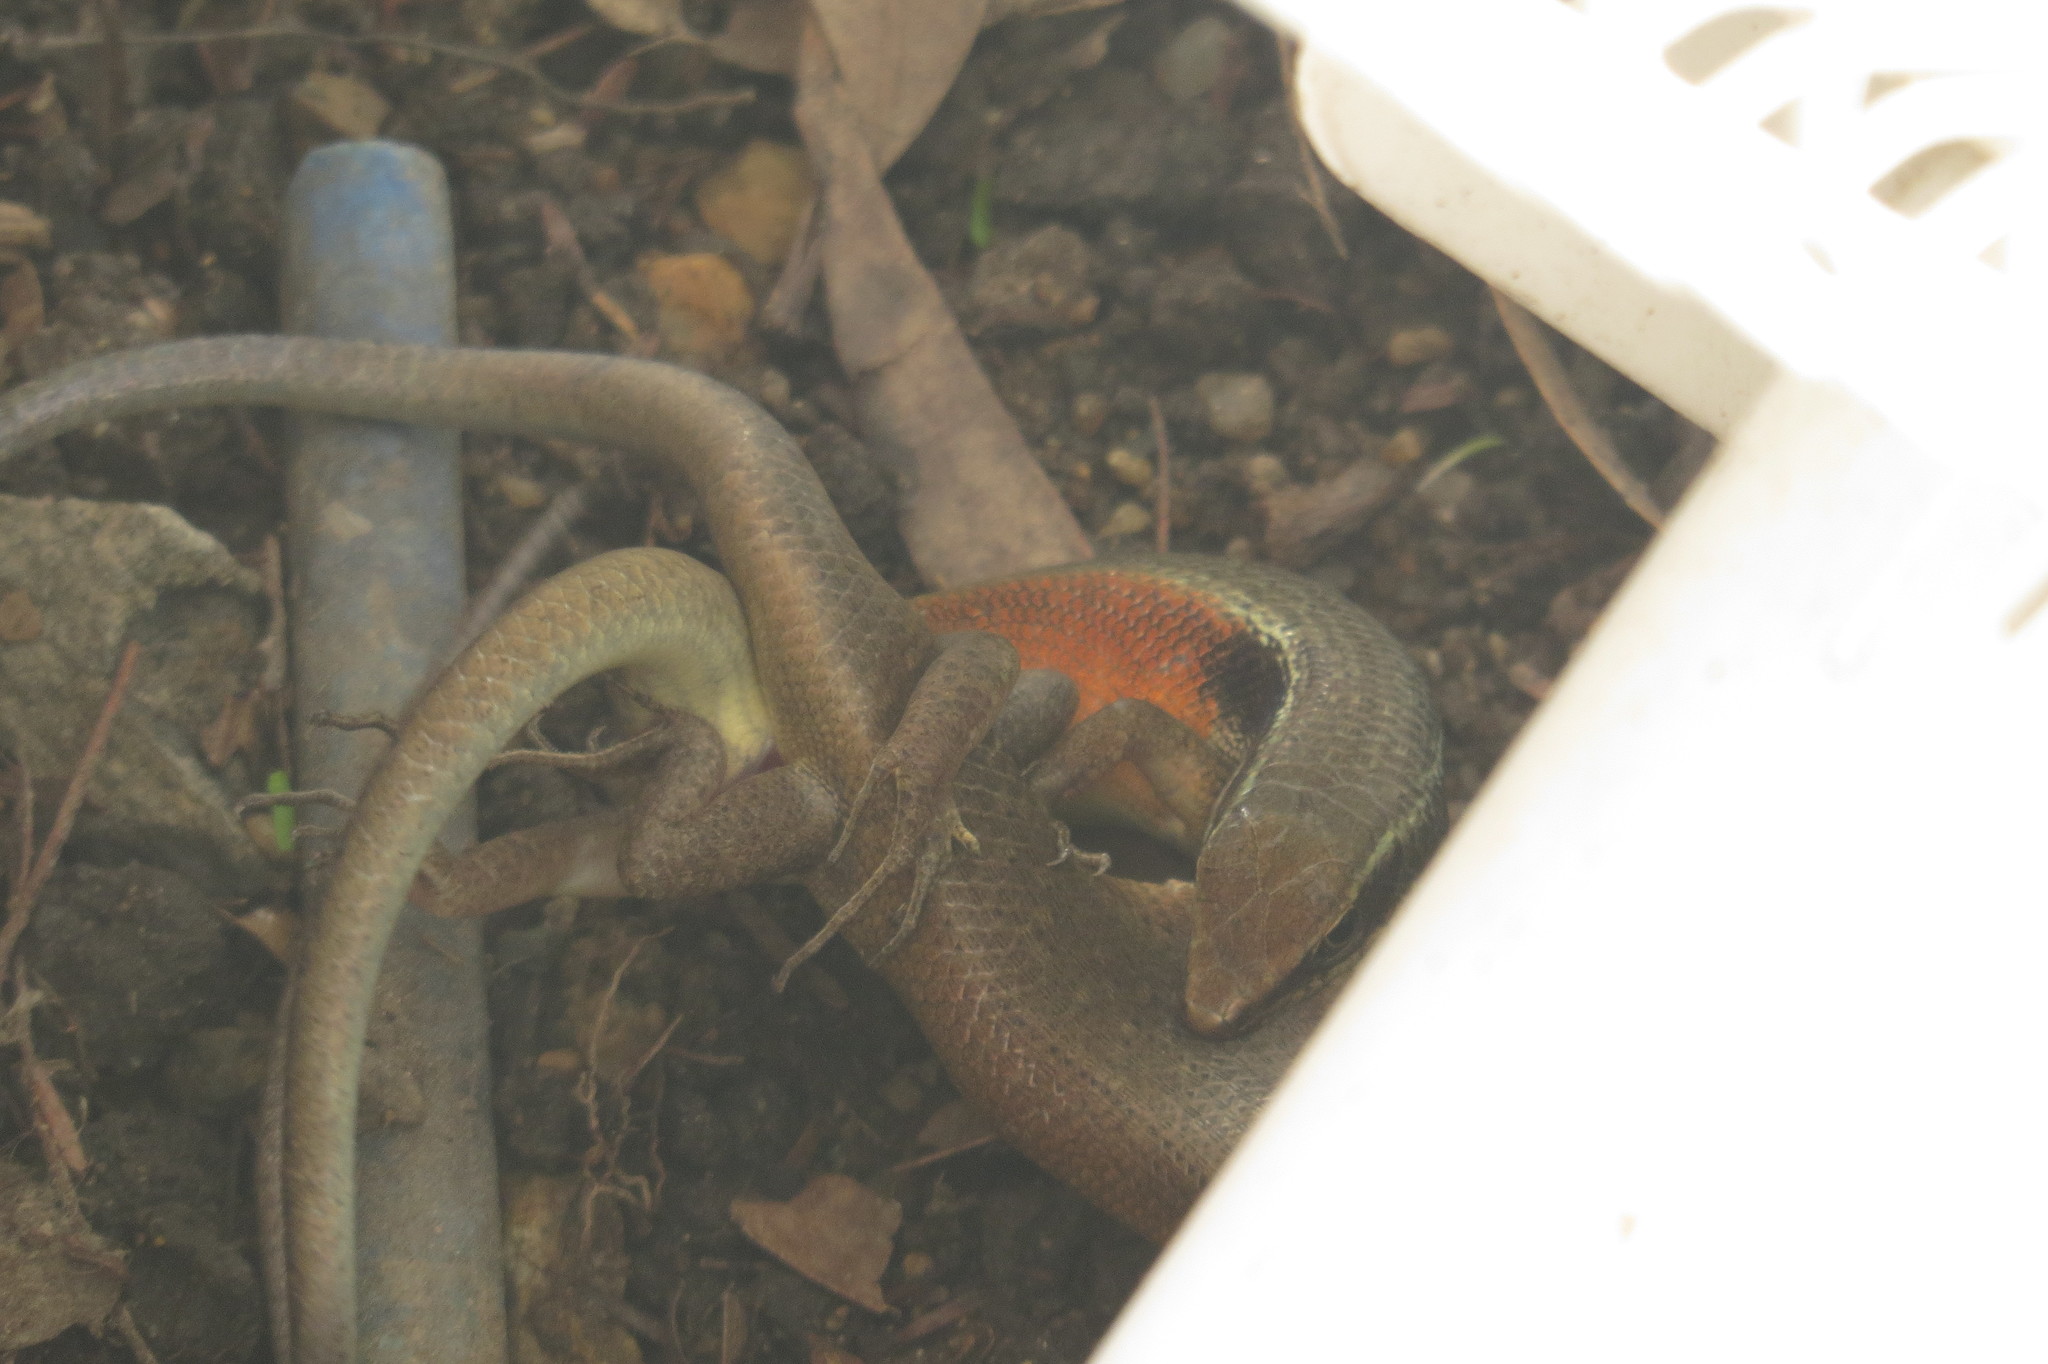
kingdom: Animalia
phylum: Chordata
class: Squamata
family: Scincidae
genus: Carlia
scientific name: Carlia longipes
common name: Closed-litter rainbow-skink
